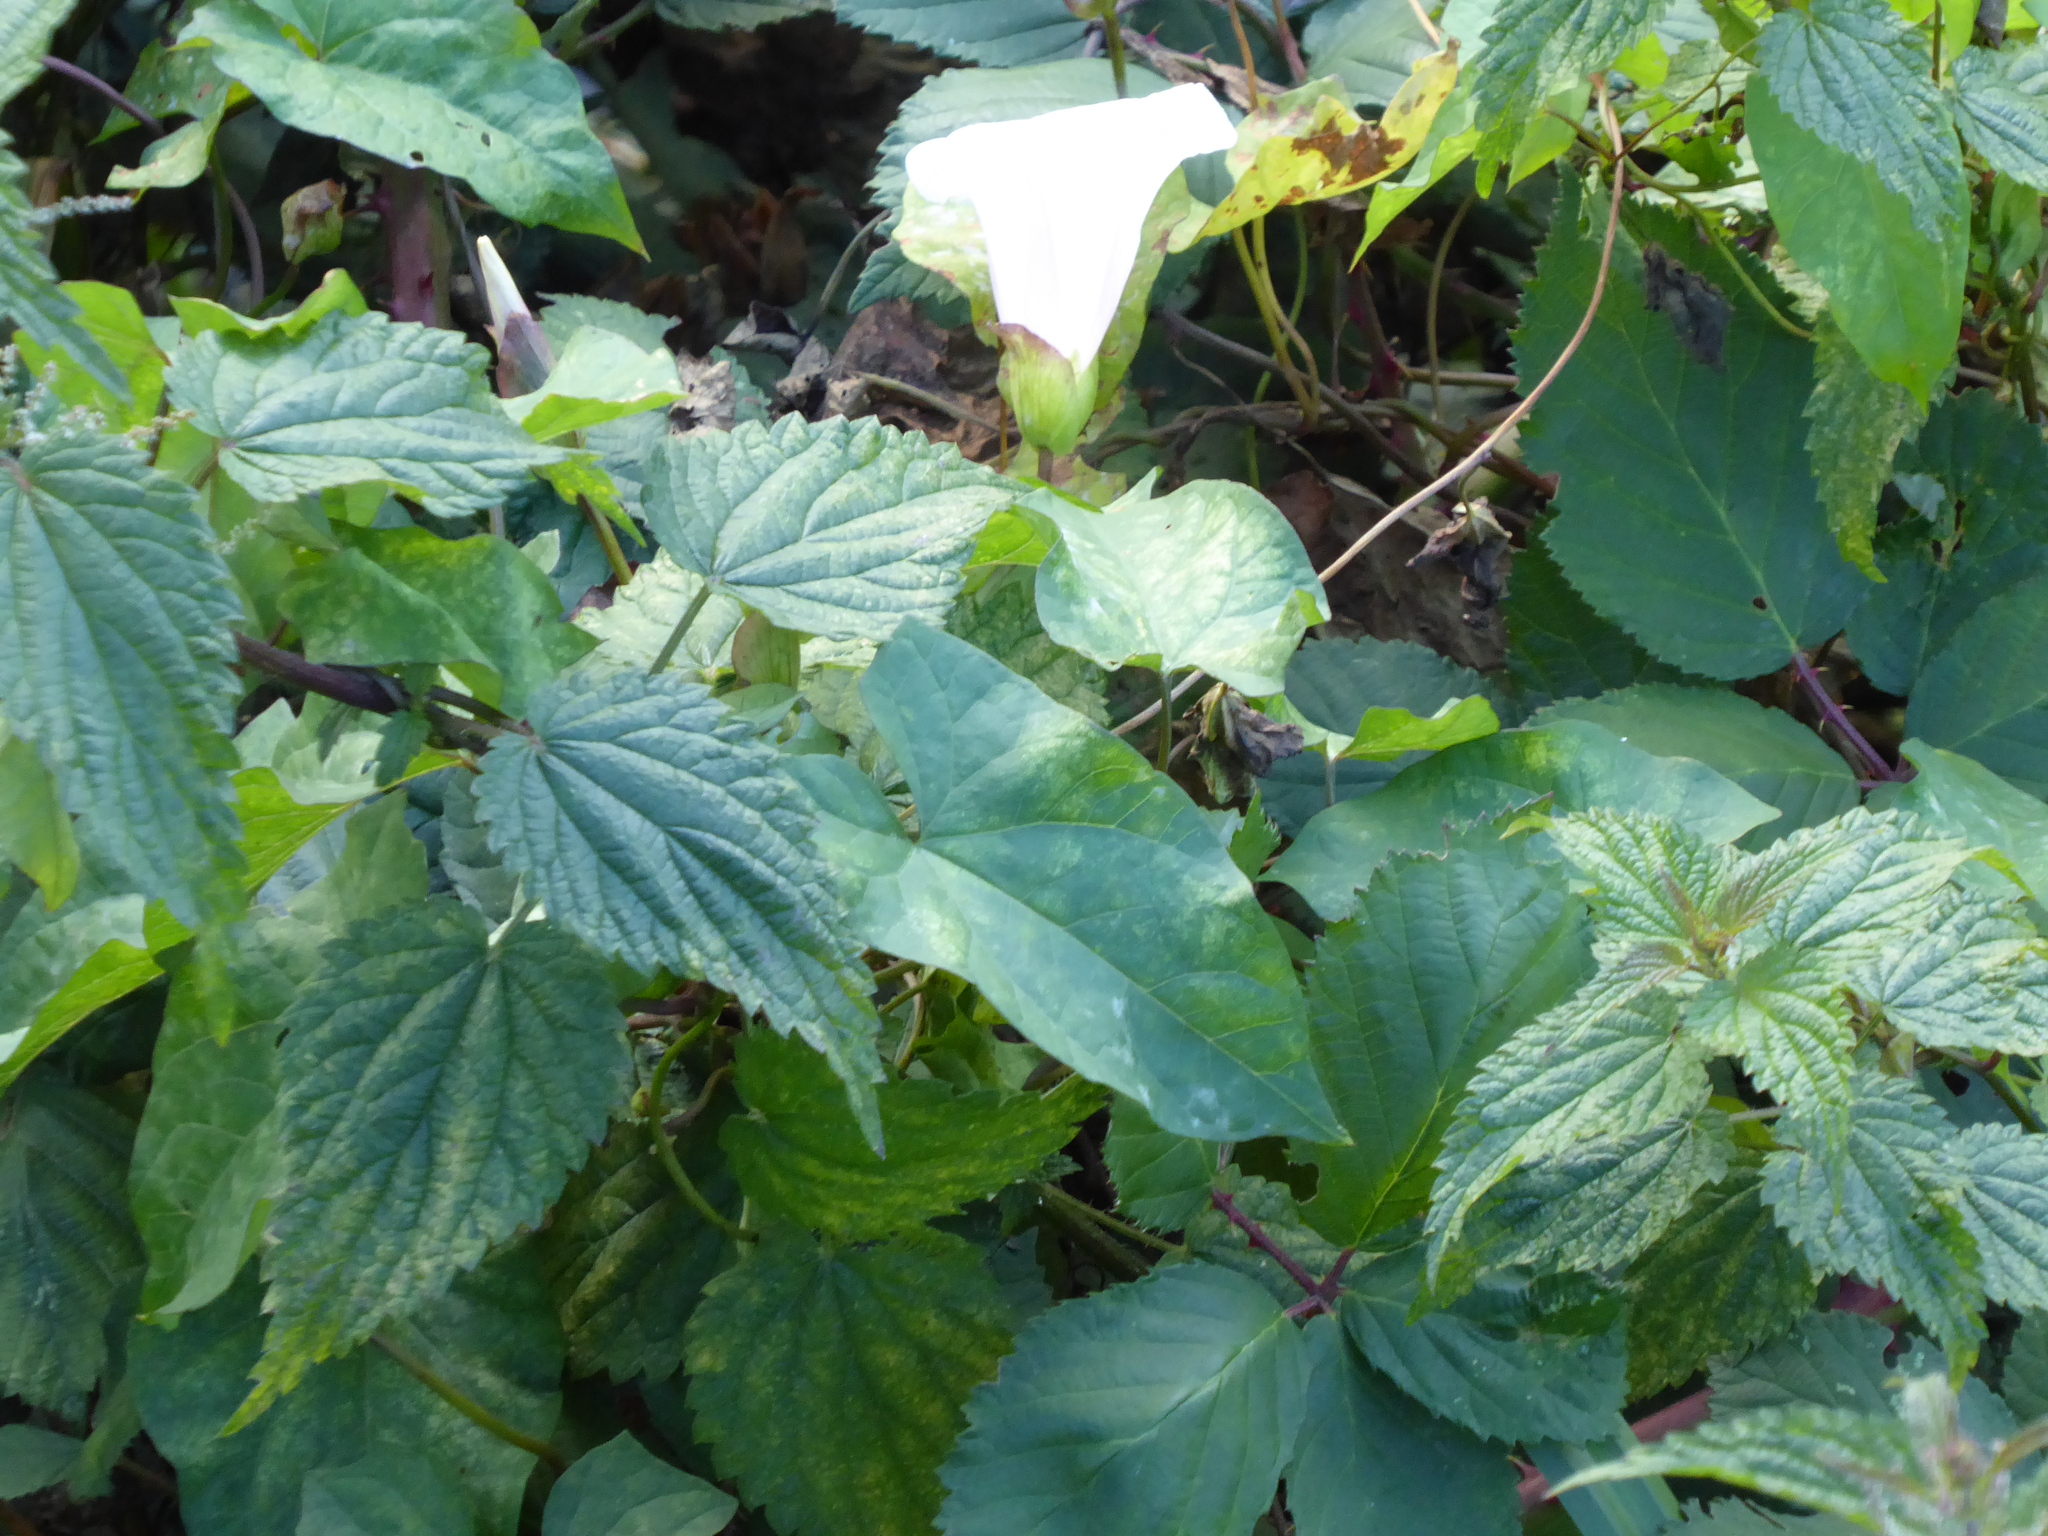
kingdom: Plantae
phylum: Tracheophyta
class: Magnoliopsida
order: Solanales
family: Convolvulaceae
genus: Calystegia
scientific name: Calystegia silvatica
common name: Large bindweed
